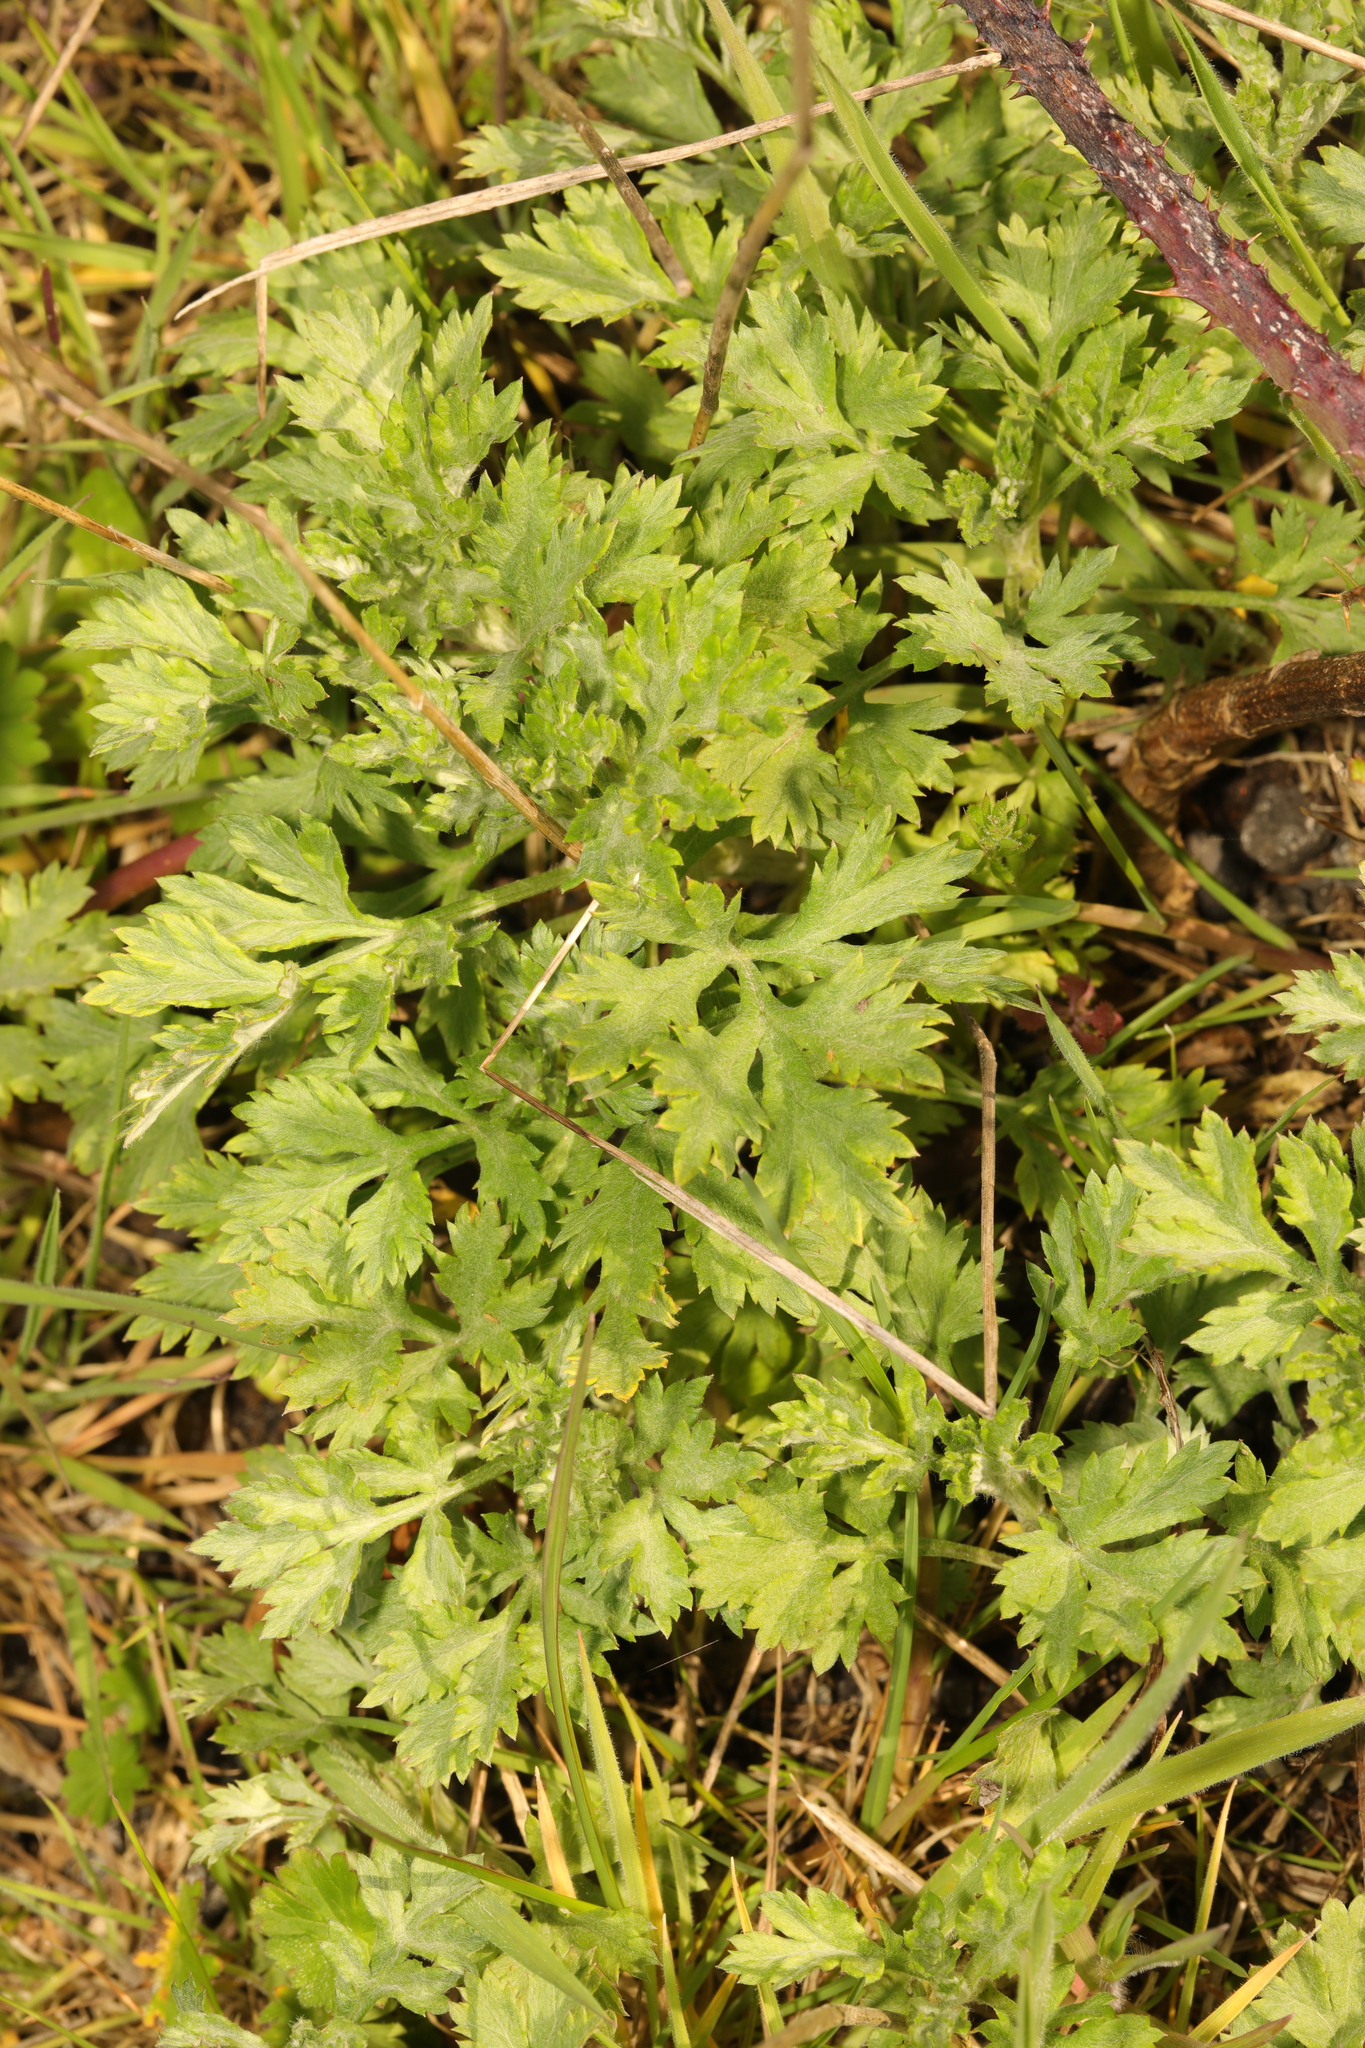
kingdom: Plantae
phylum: Tracheophyta
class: Magnoliopsida
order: Asterales
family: Asteraceae
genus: Artemisia
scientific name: Artemisia vulgaris
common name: Mugwort
